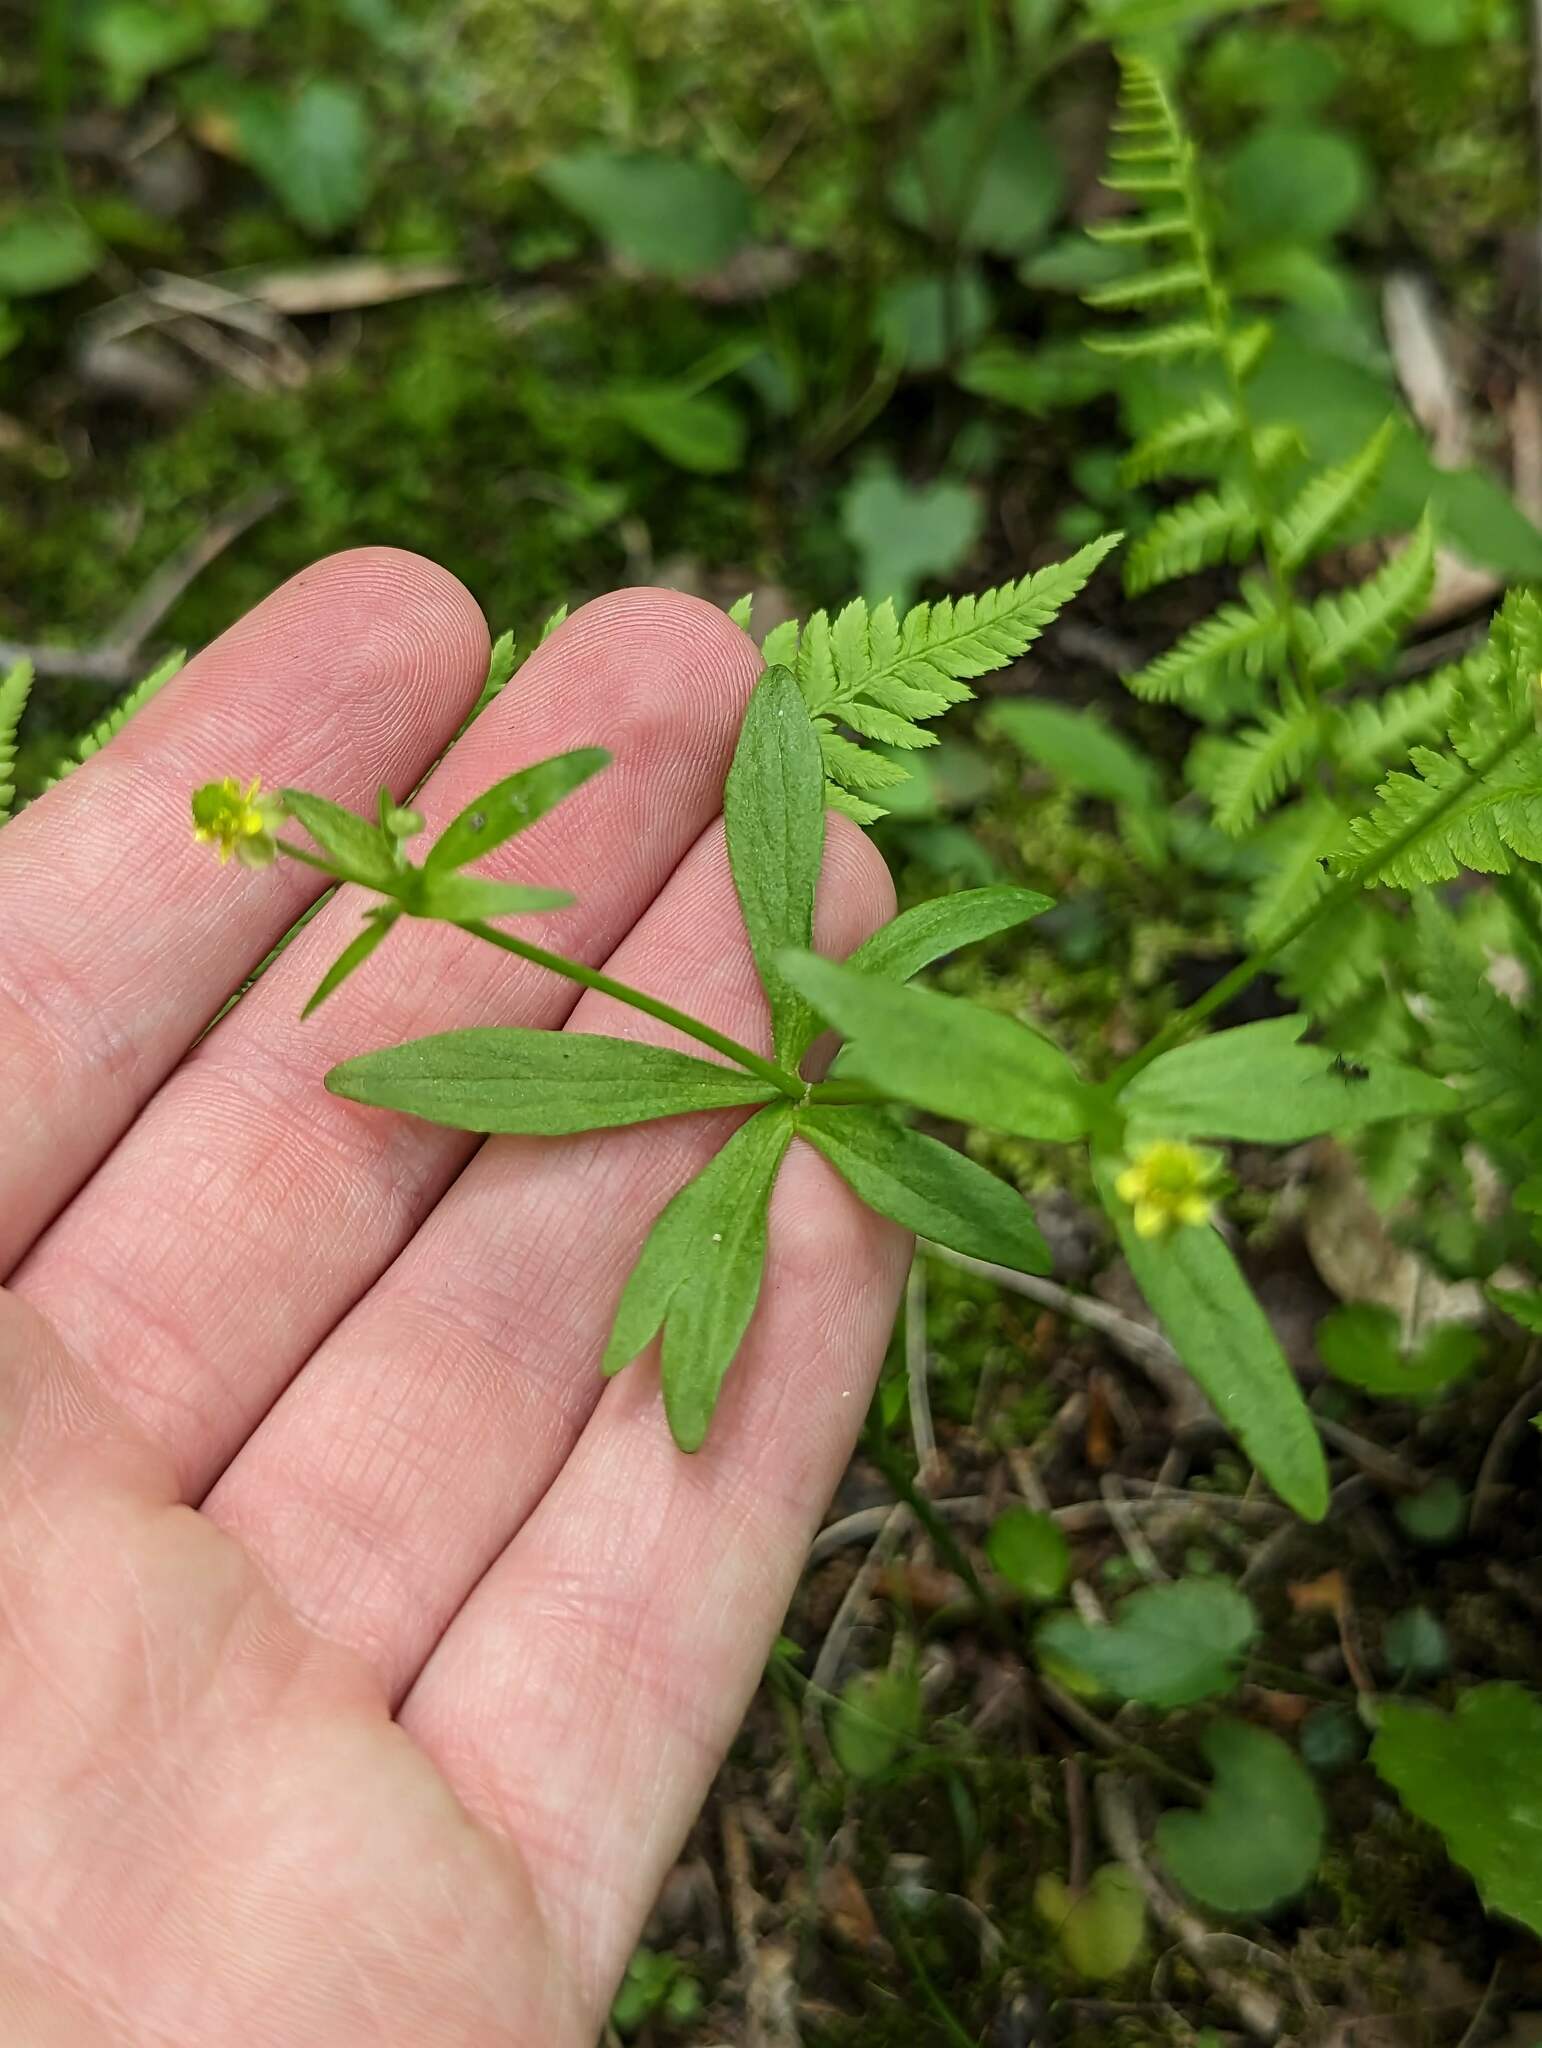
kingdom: Plantae
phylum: Tracheophyta
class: Magnoliopsida
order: Ranunculales
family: Ranunculaceae
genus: Ranunculus
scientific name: Ranunculus abortivus
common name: Early wood buttercup
